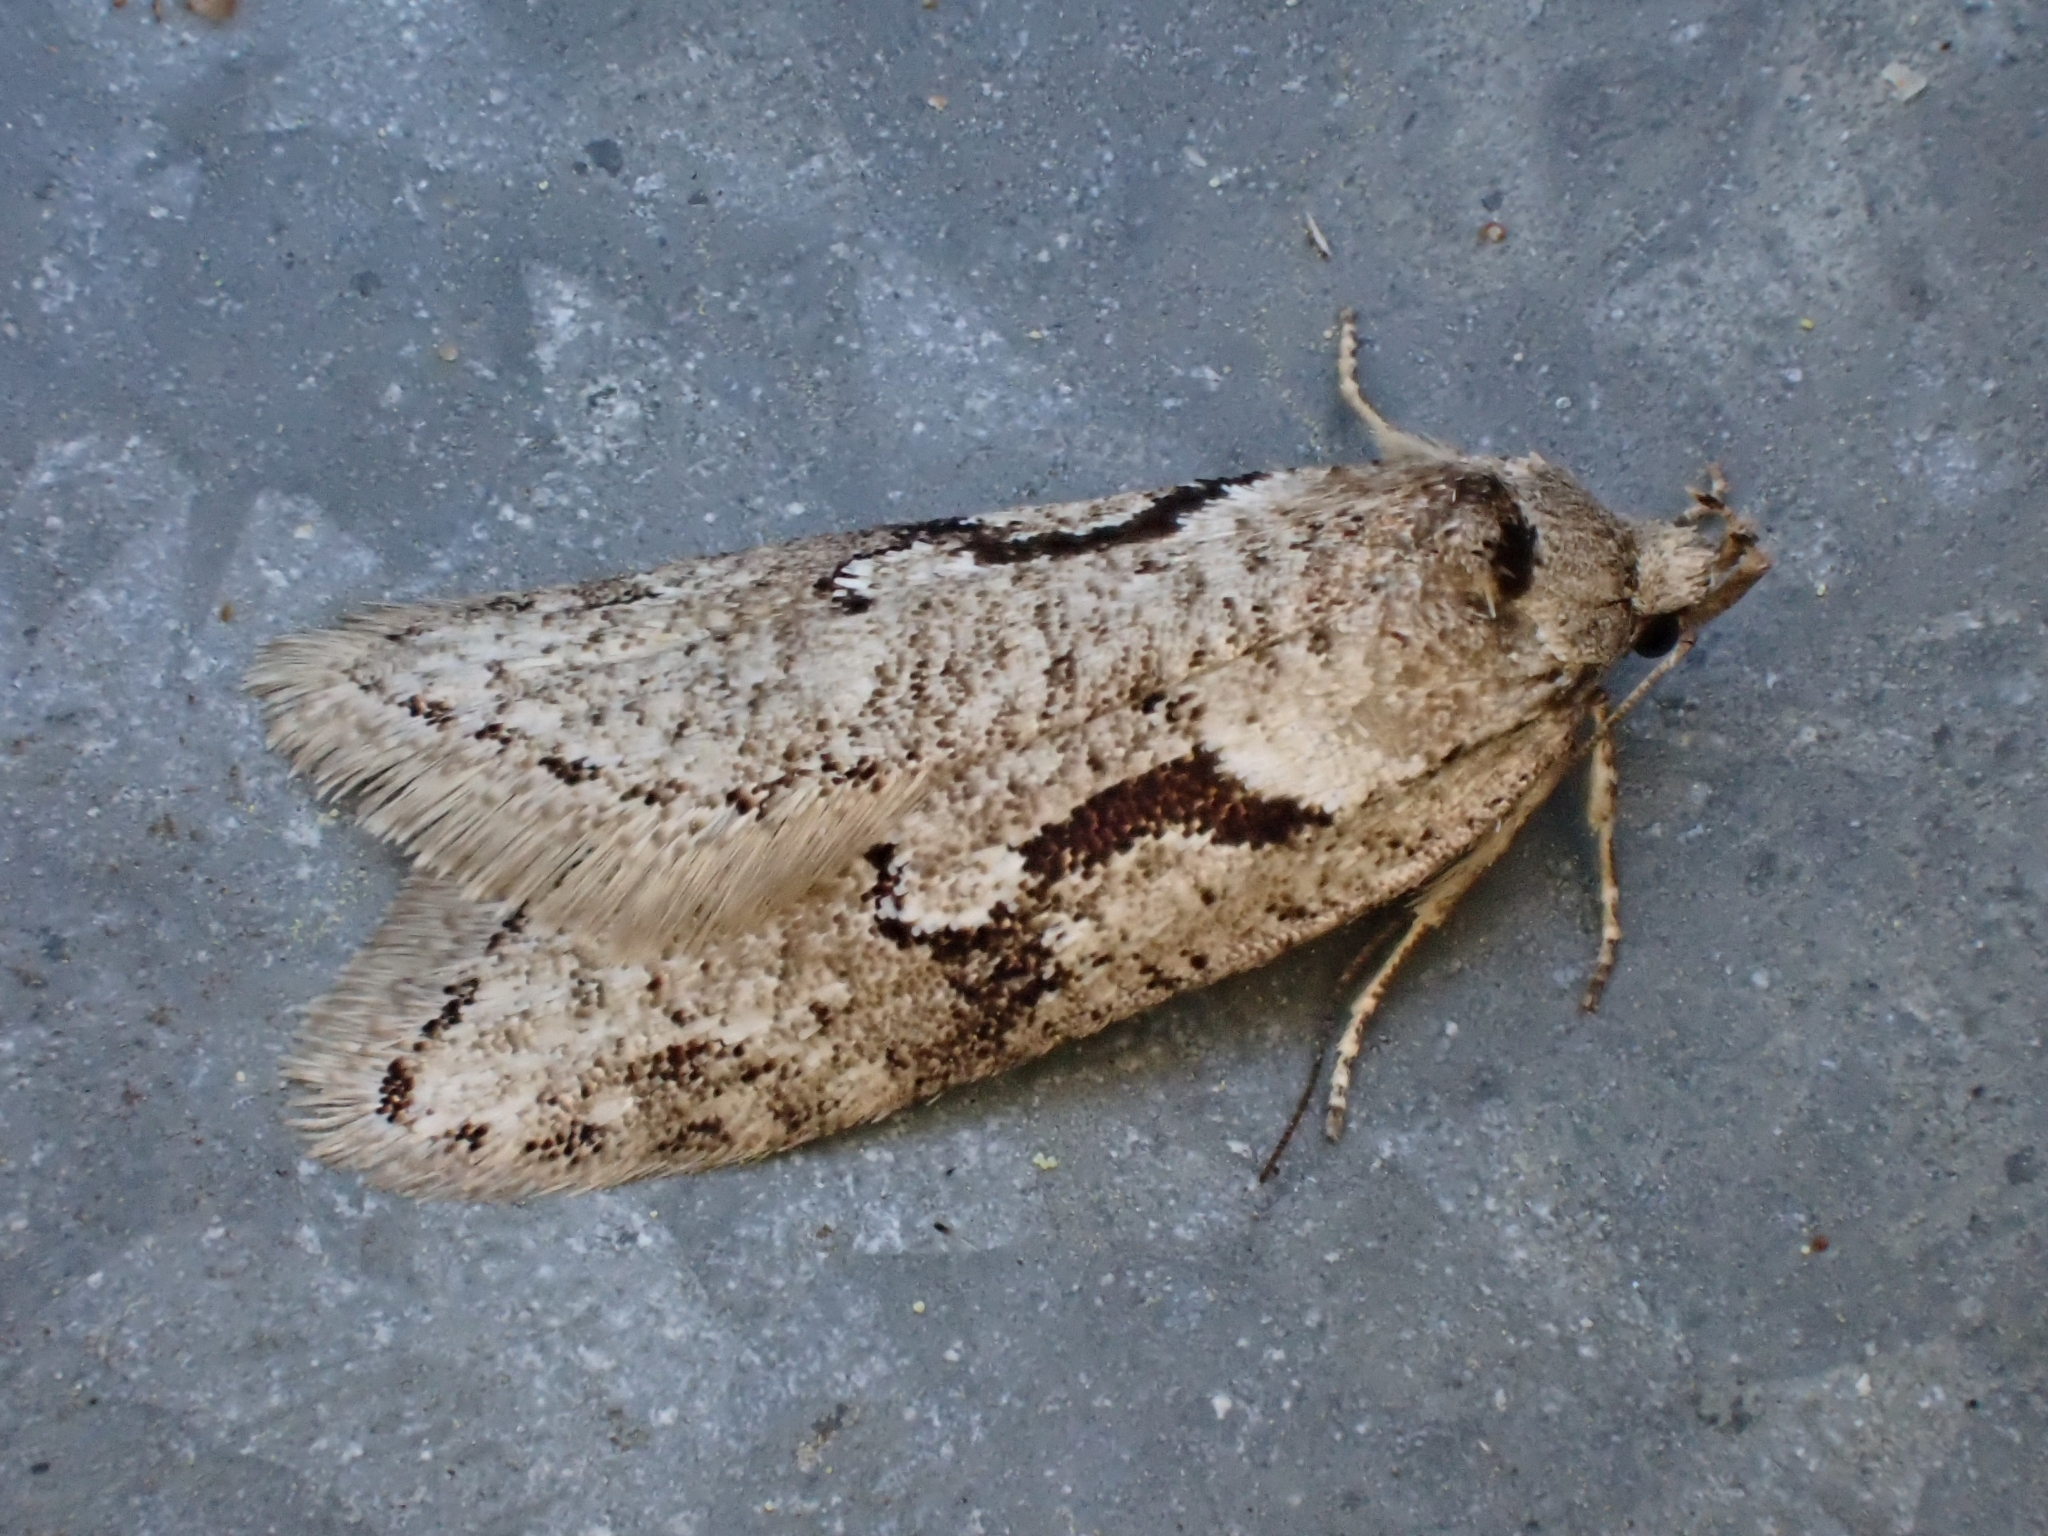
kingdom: Animalia
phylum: Arthropoda
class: Insecta
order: Lepidoptera
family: Depressariidae
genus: Semioscopis
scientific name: Semioscopis steinkellneriana
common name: Dawn flat-body
